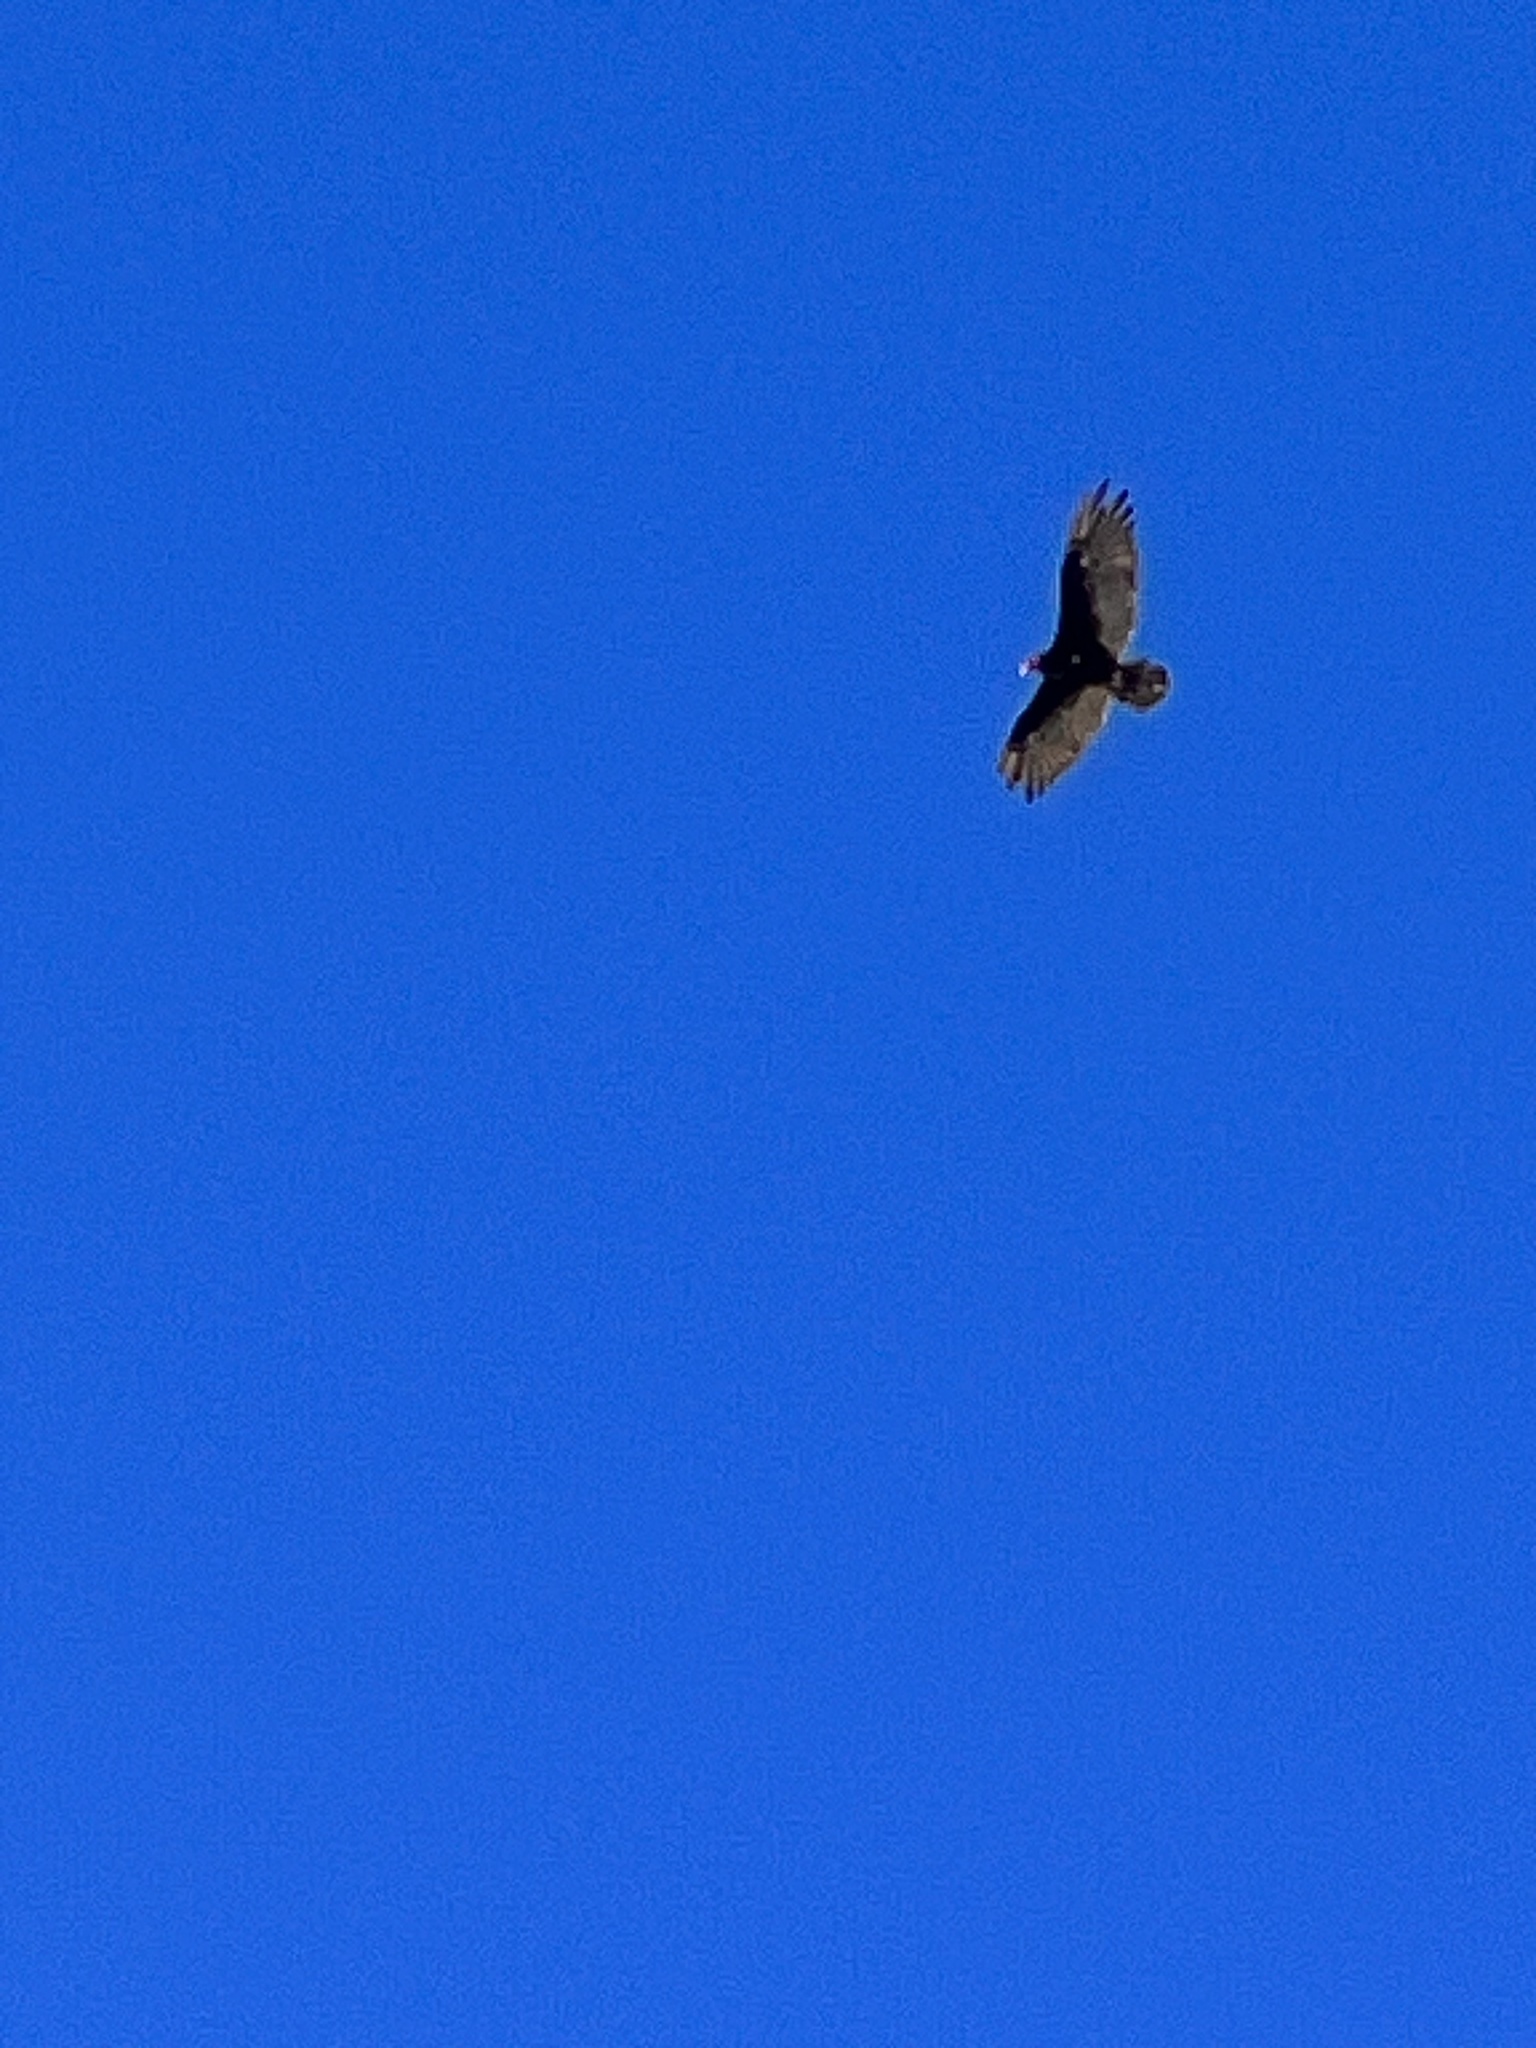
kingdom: Animalia
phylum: Chordata
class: Aves
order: Accipitriformes
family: Cathartidae
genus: Cathartes
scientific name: Cathartes aura
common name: Turkey vulture
